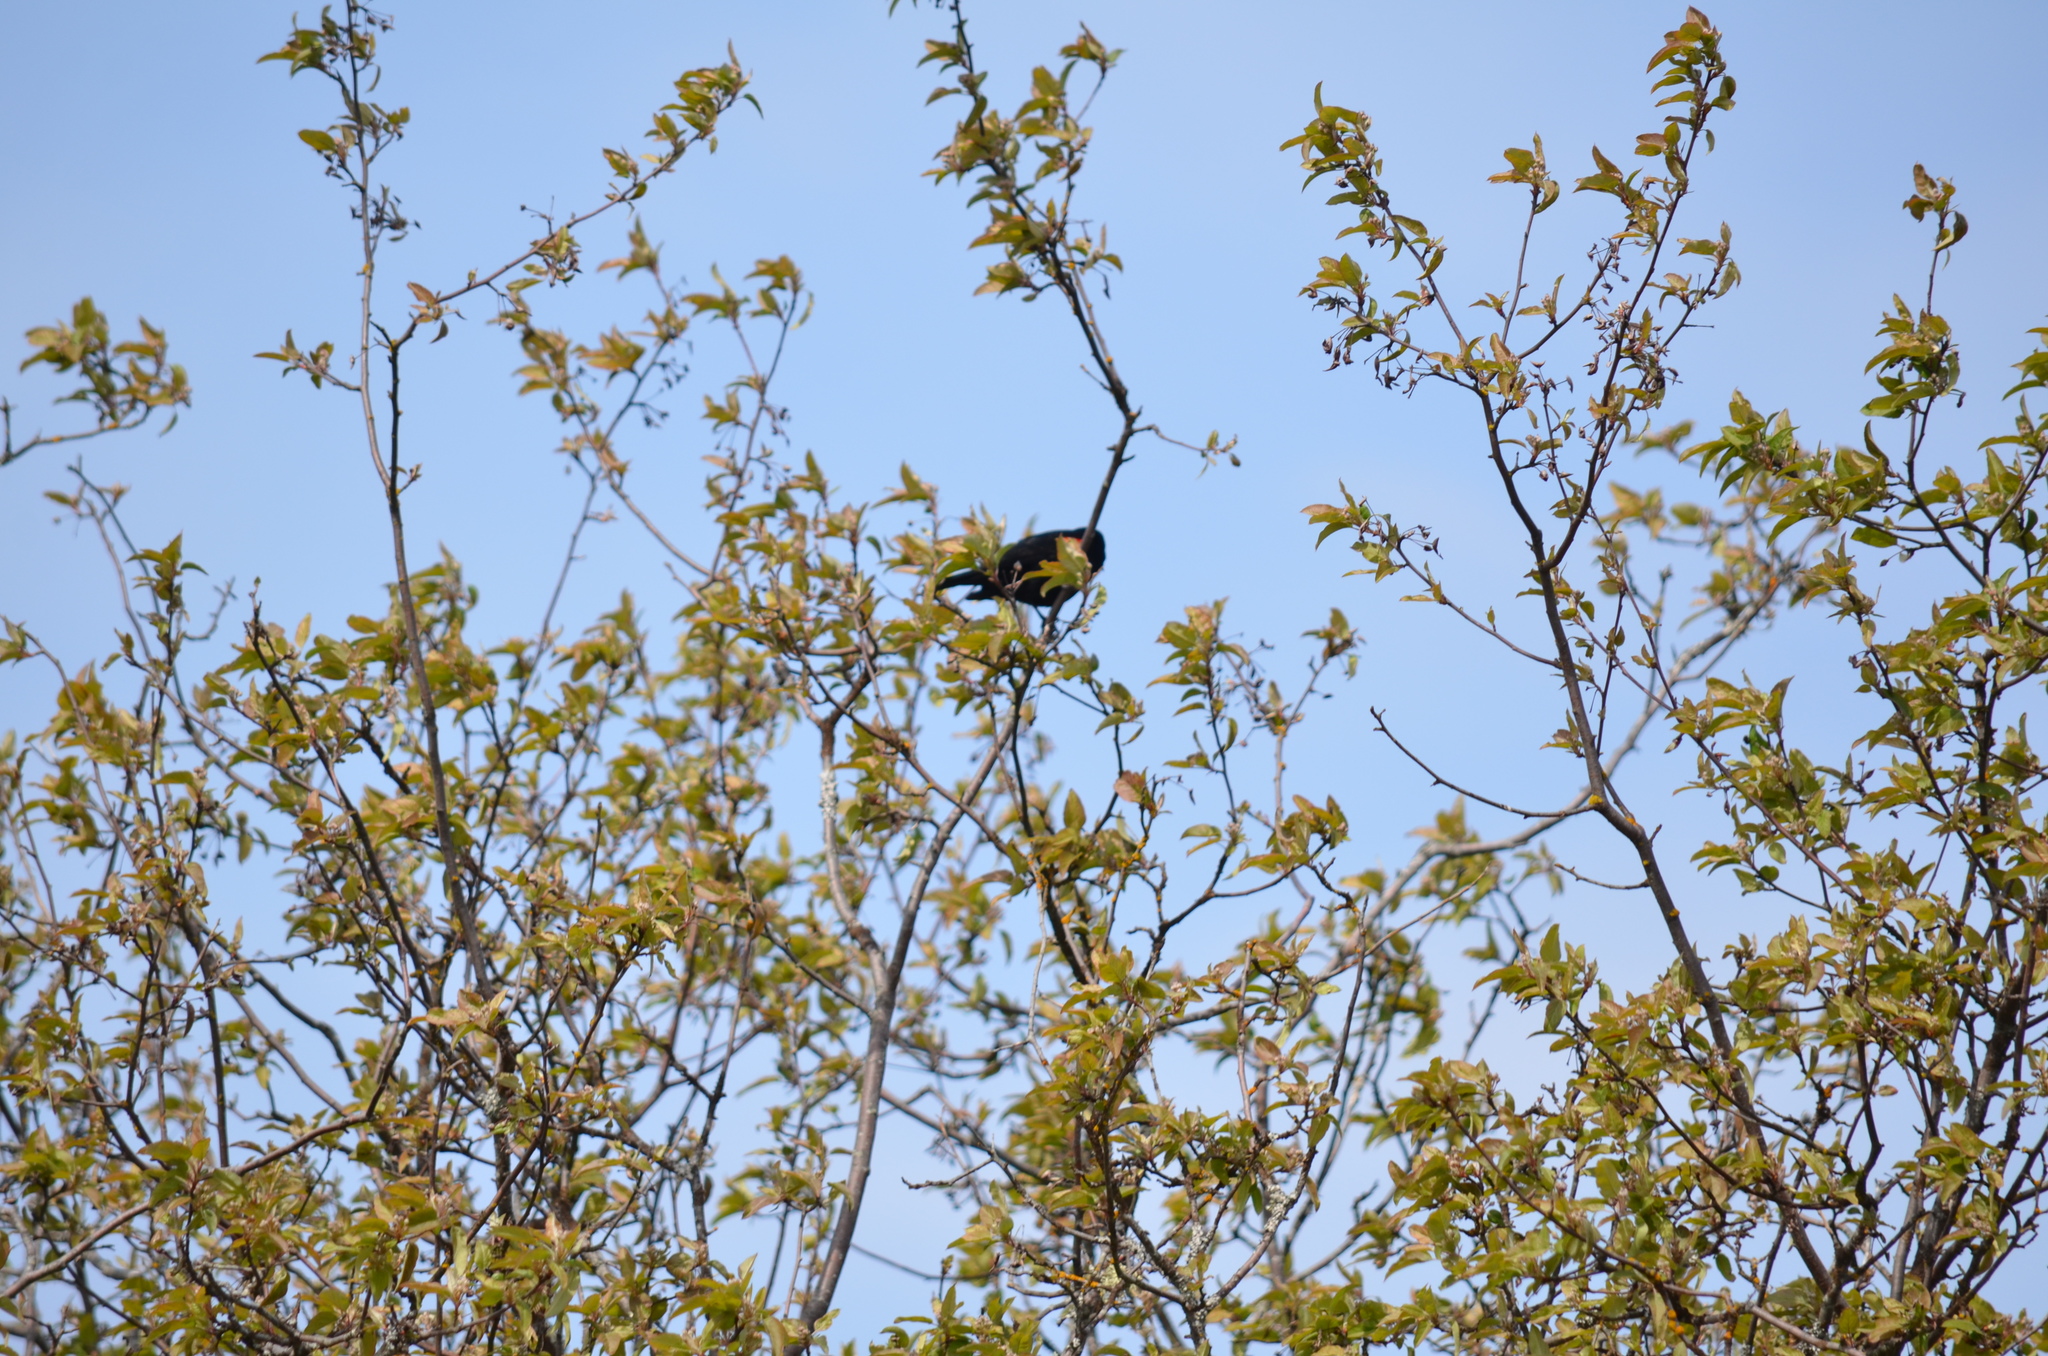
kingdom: Animalia
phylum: Chordata
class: Aves
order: Passeriformes
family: Icteridae
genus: Agelaius
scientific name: Agelaius phoeniceus
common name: Red-winged blackbird
